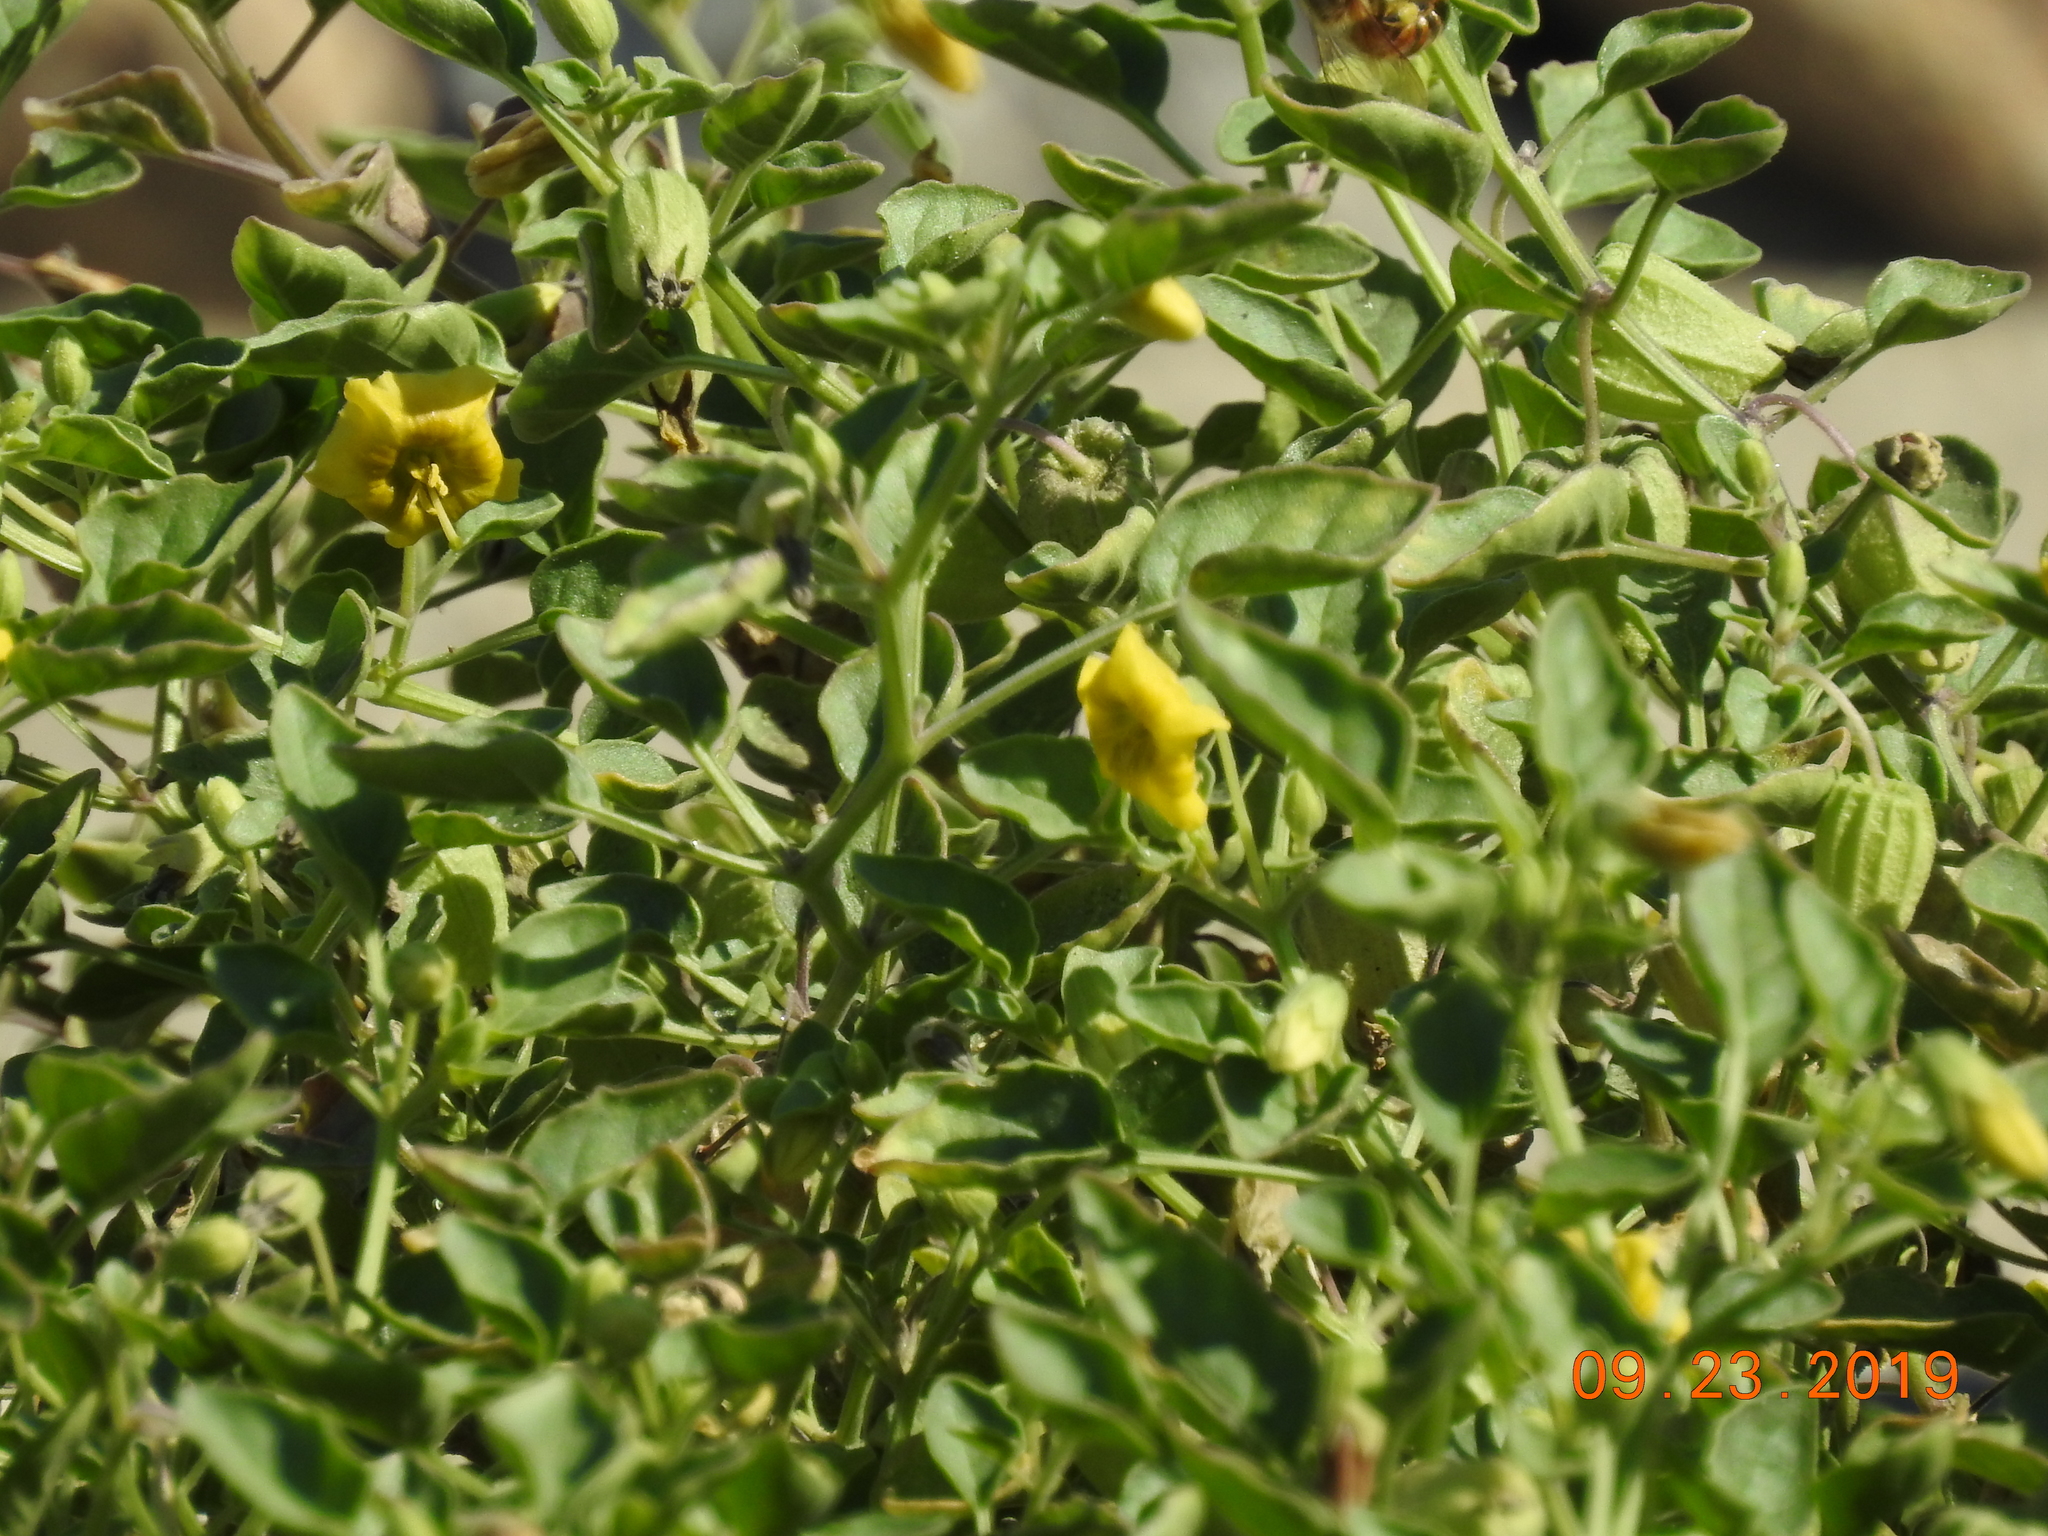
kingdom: Plantae
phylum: Tracheophyta
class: Magnoliopsida
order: Solanales
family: Solanaceae
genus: Physalis
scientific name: Physalis crassifolia
